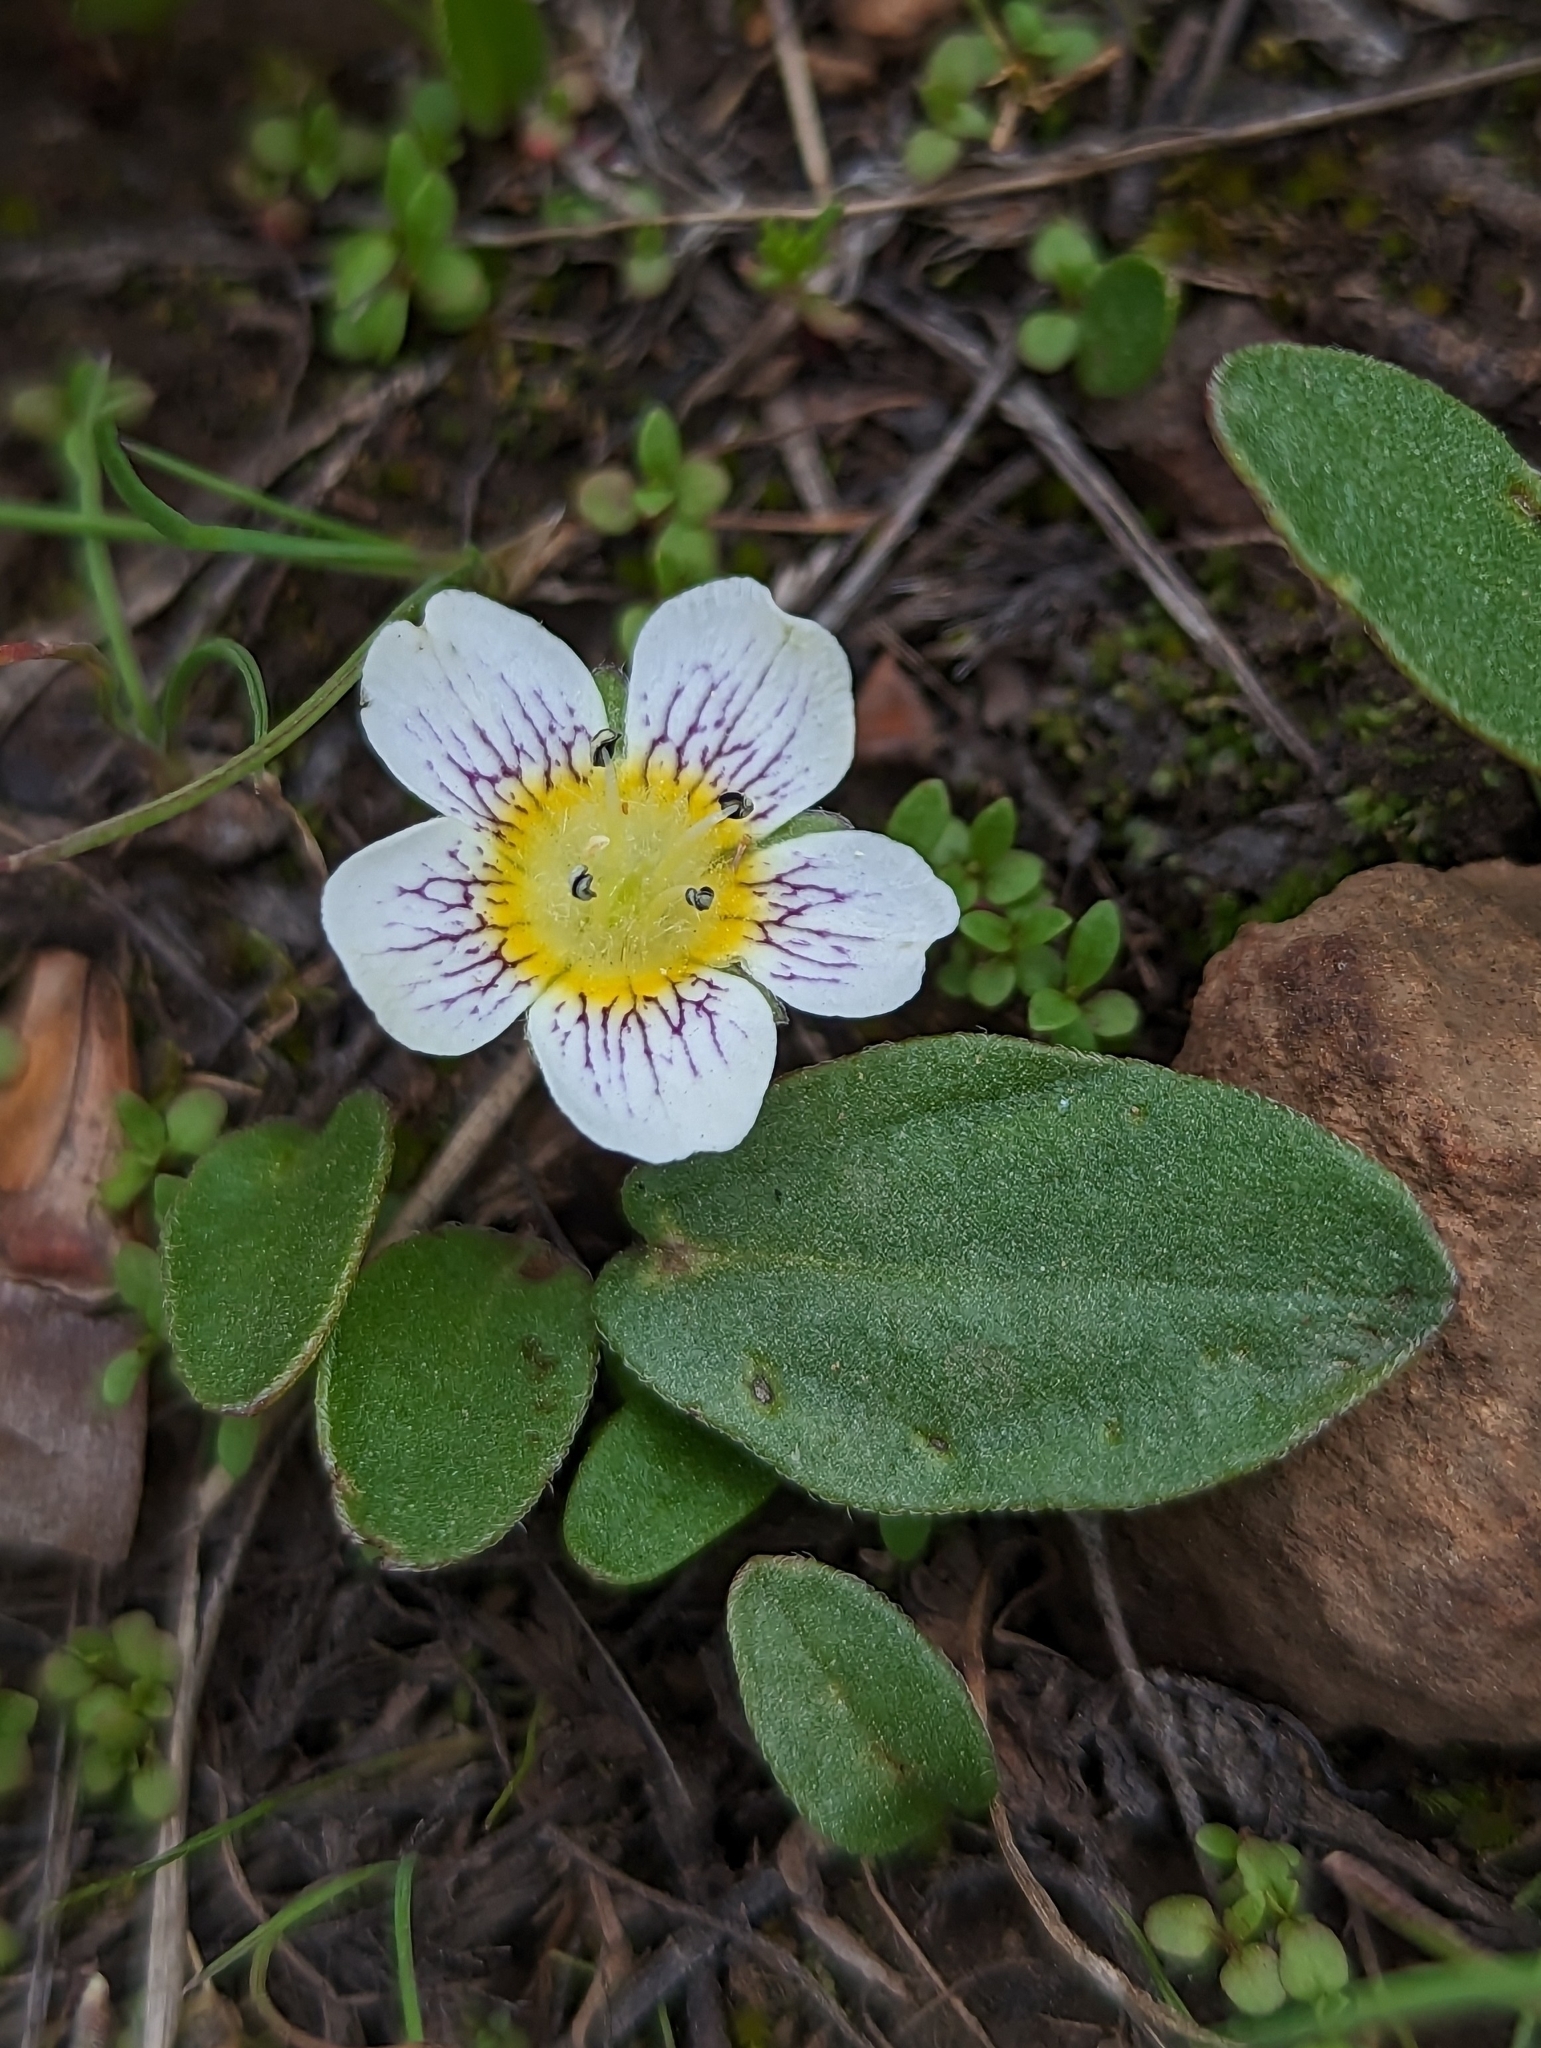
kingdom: Plantae
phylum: Tracheophyta
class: Magnoliopsida
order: Boraginales
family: Hydrophyllaceae
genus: Hesperochiron
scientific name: Hesperochiron pumilus
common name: Dwarf hesperochiron
